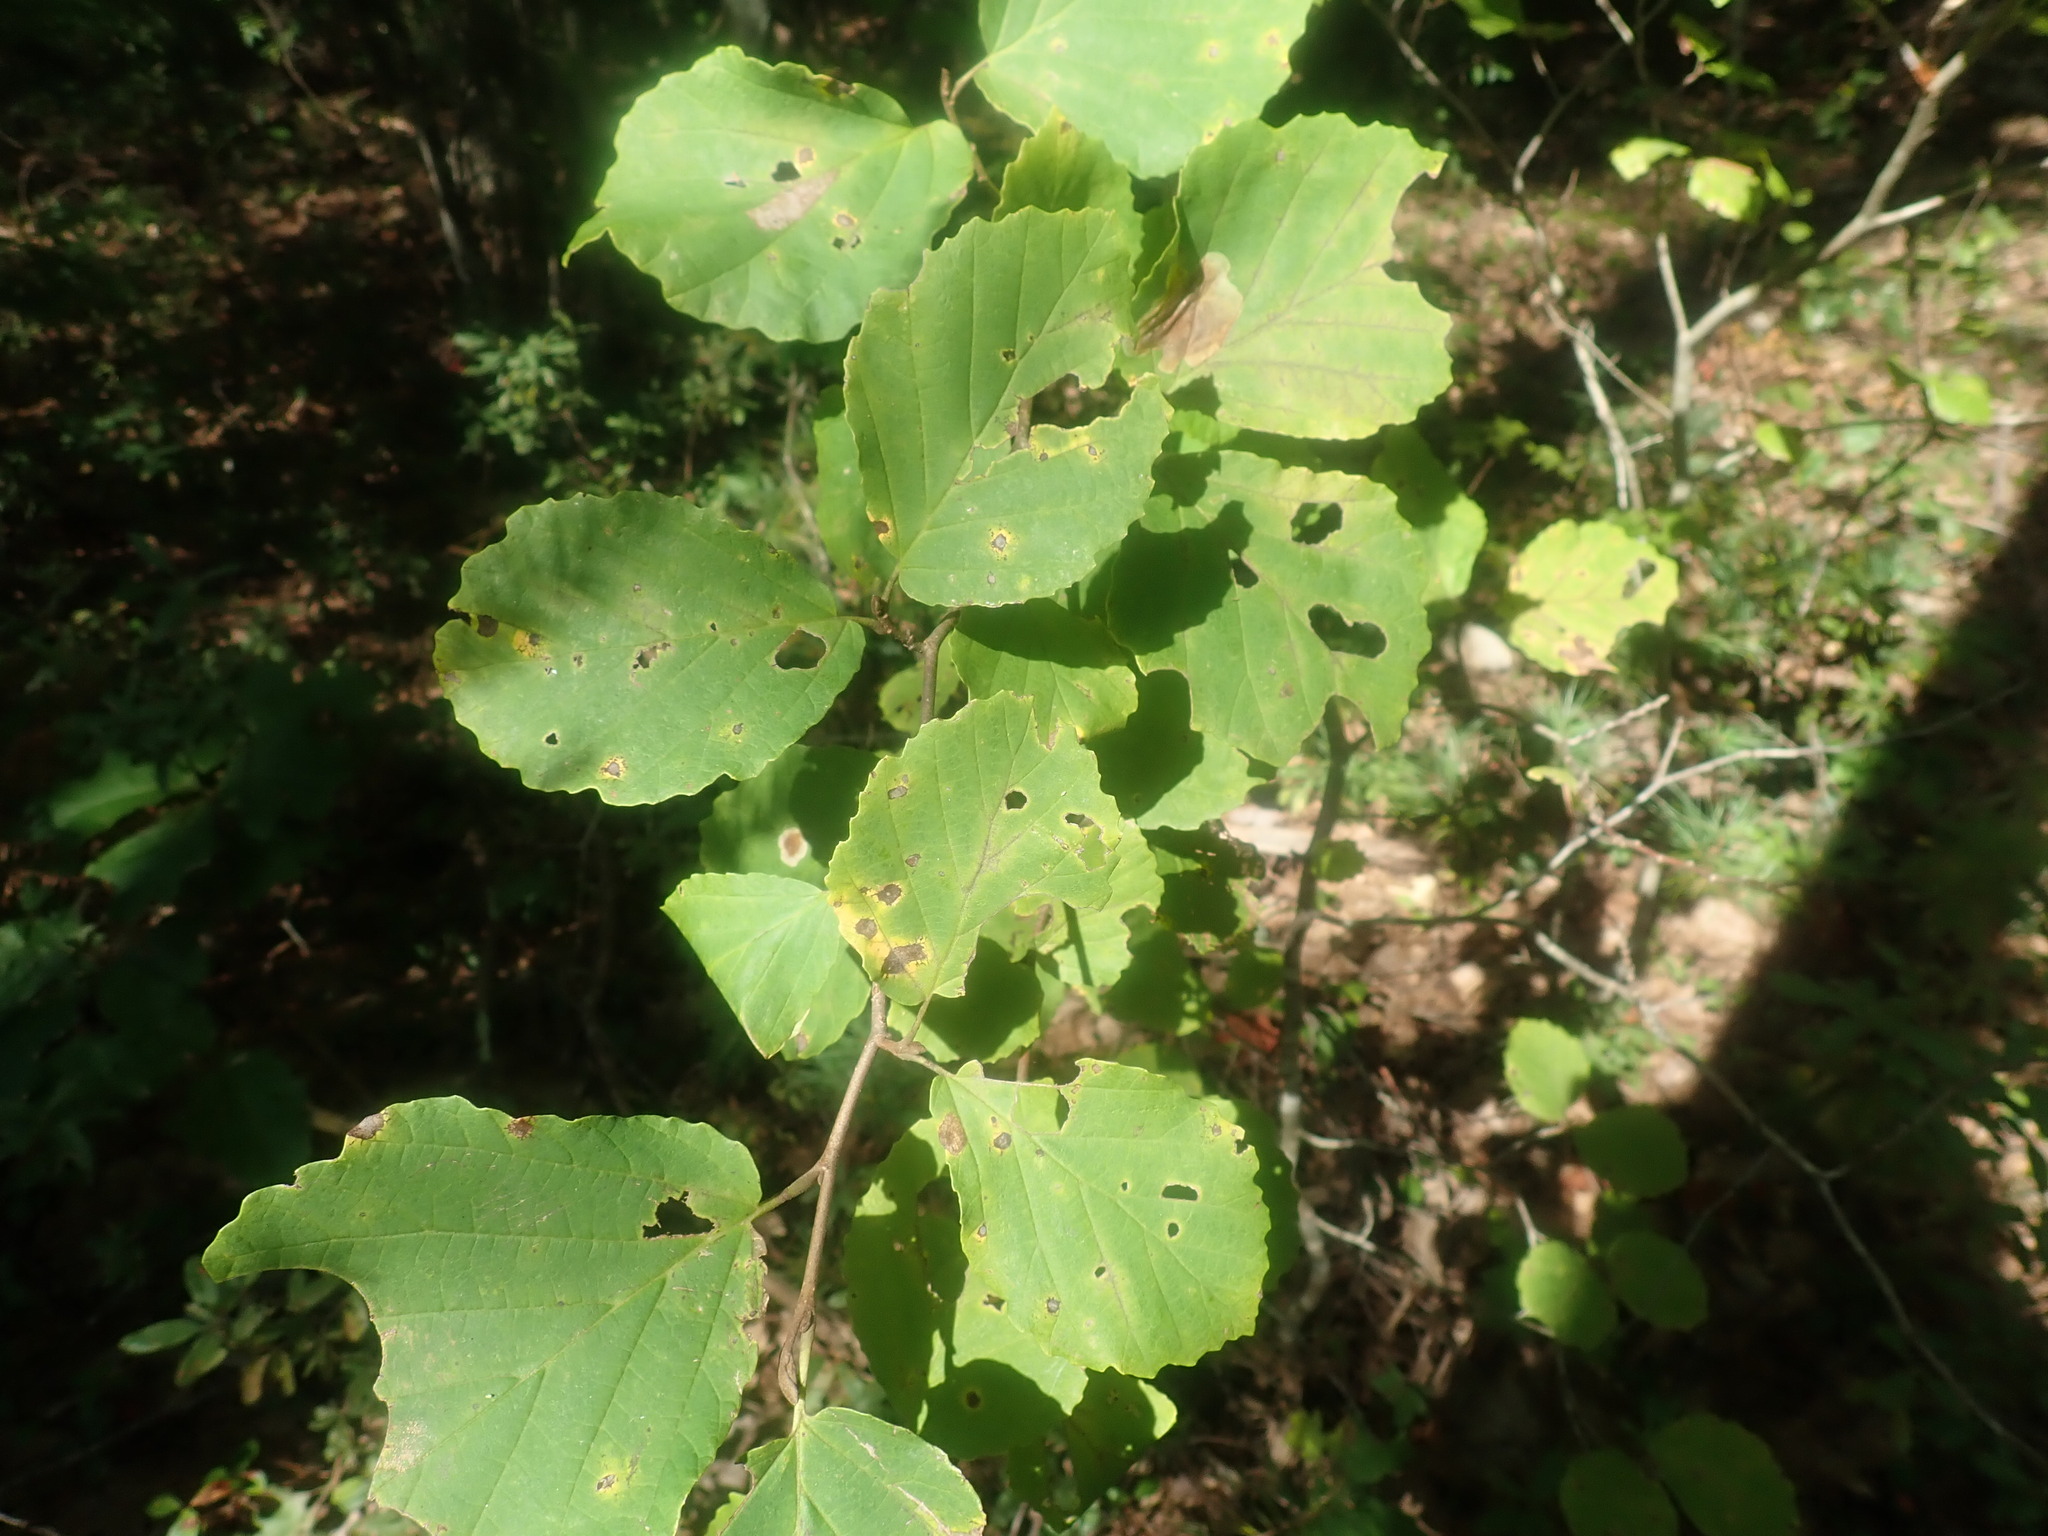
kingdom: Plantae
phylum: Tracheophyta
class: Magnoliopsida
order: Saxifragales
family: Hamamelidaceae
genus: Hamamelis
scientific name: Hamamelis virginiana
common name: Witch-hazel
